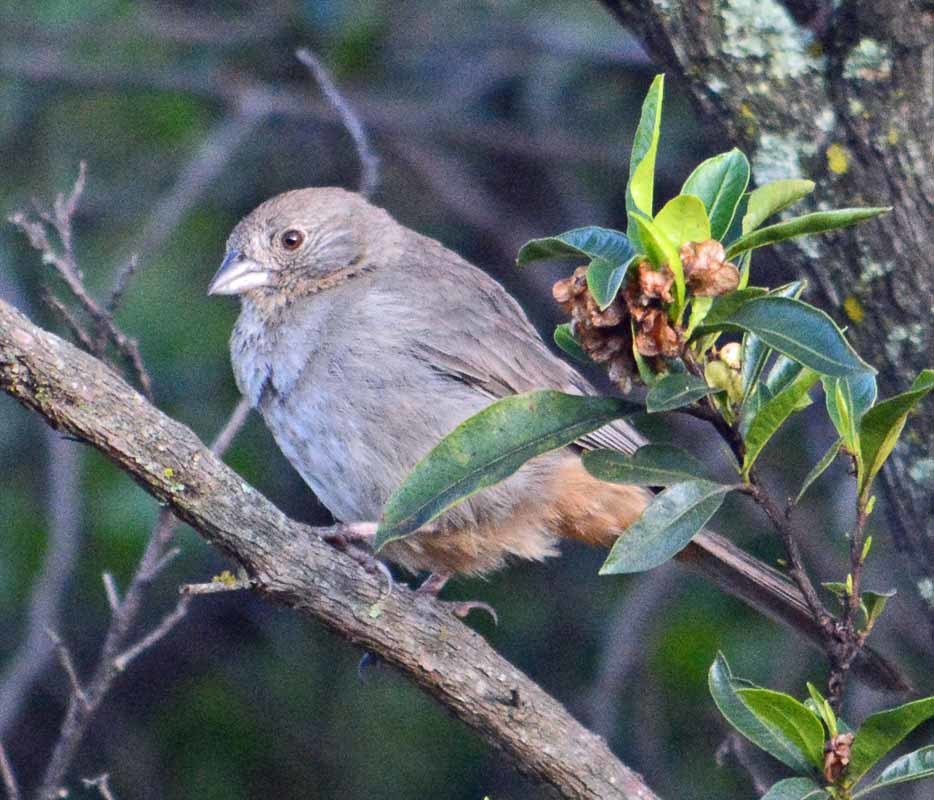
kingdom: Animalia
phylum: Chordata
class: Aves
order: Passeriformes
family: Passerellidae
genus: Melozone
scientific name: Melozone fusca
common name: Canyon towhee
